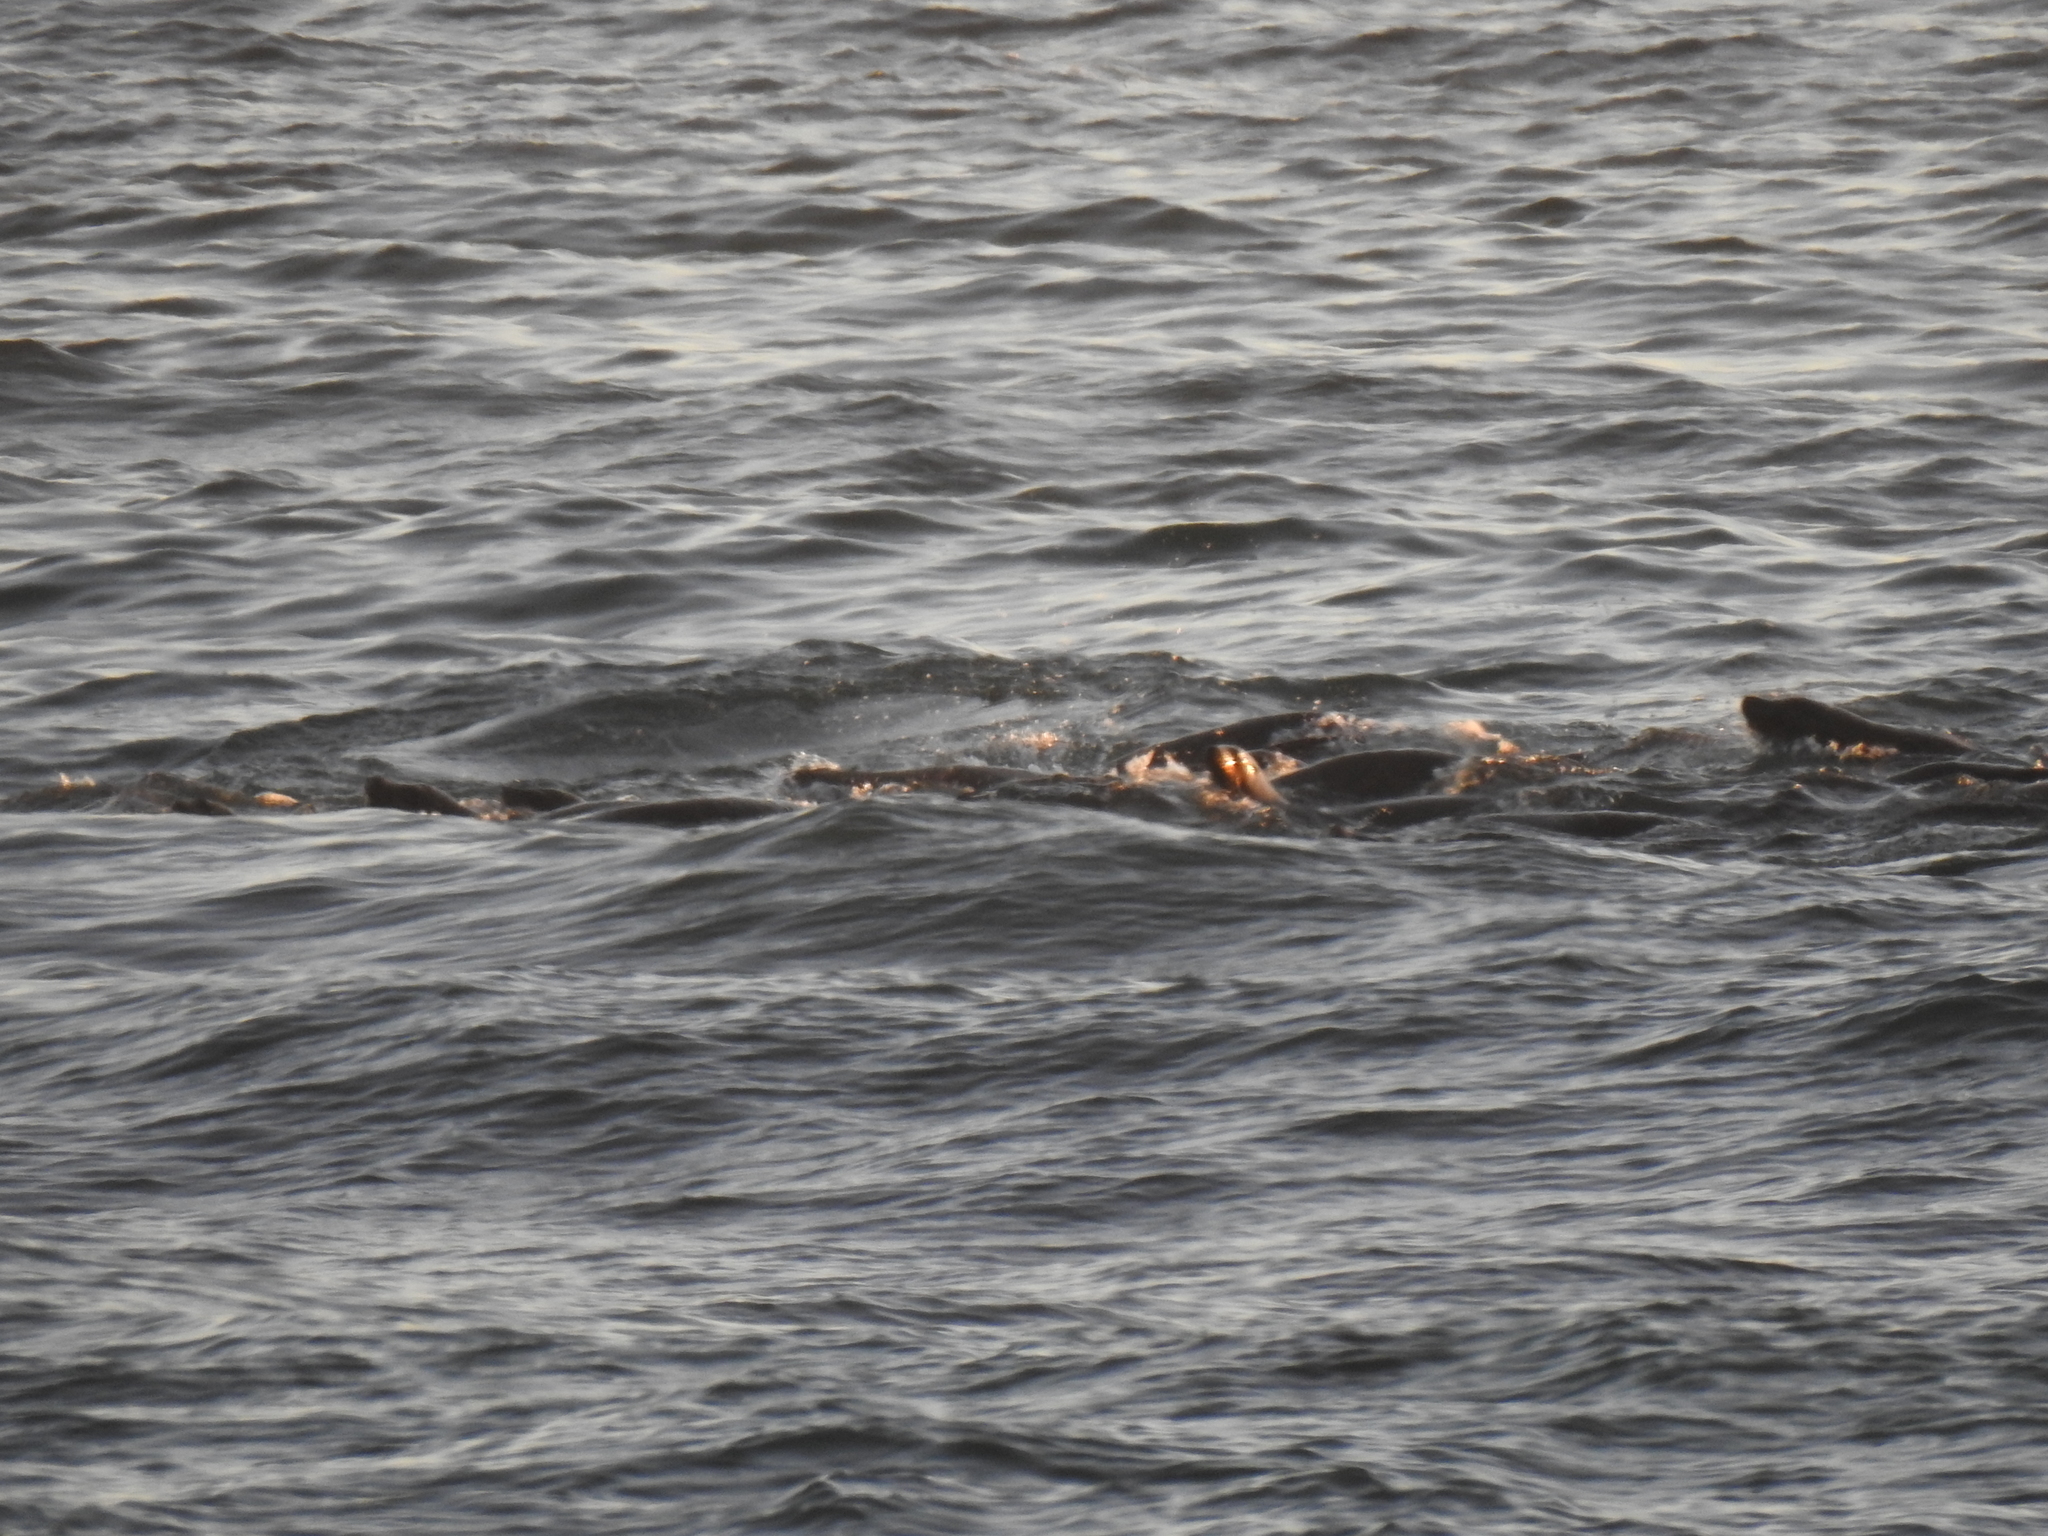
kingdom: Animalia
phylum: Chordata
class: Mammalia
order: Carnivora
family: Otariidae
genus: Zalophus
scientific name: Zalophus californianus
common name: California sea lion
